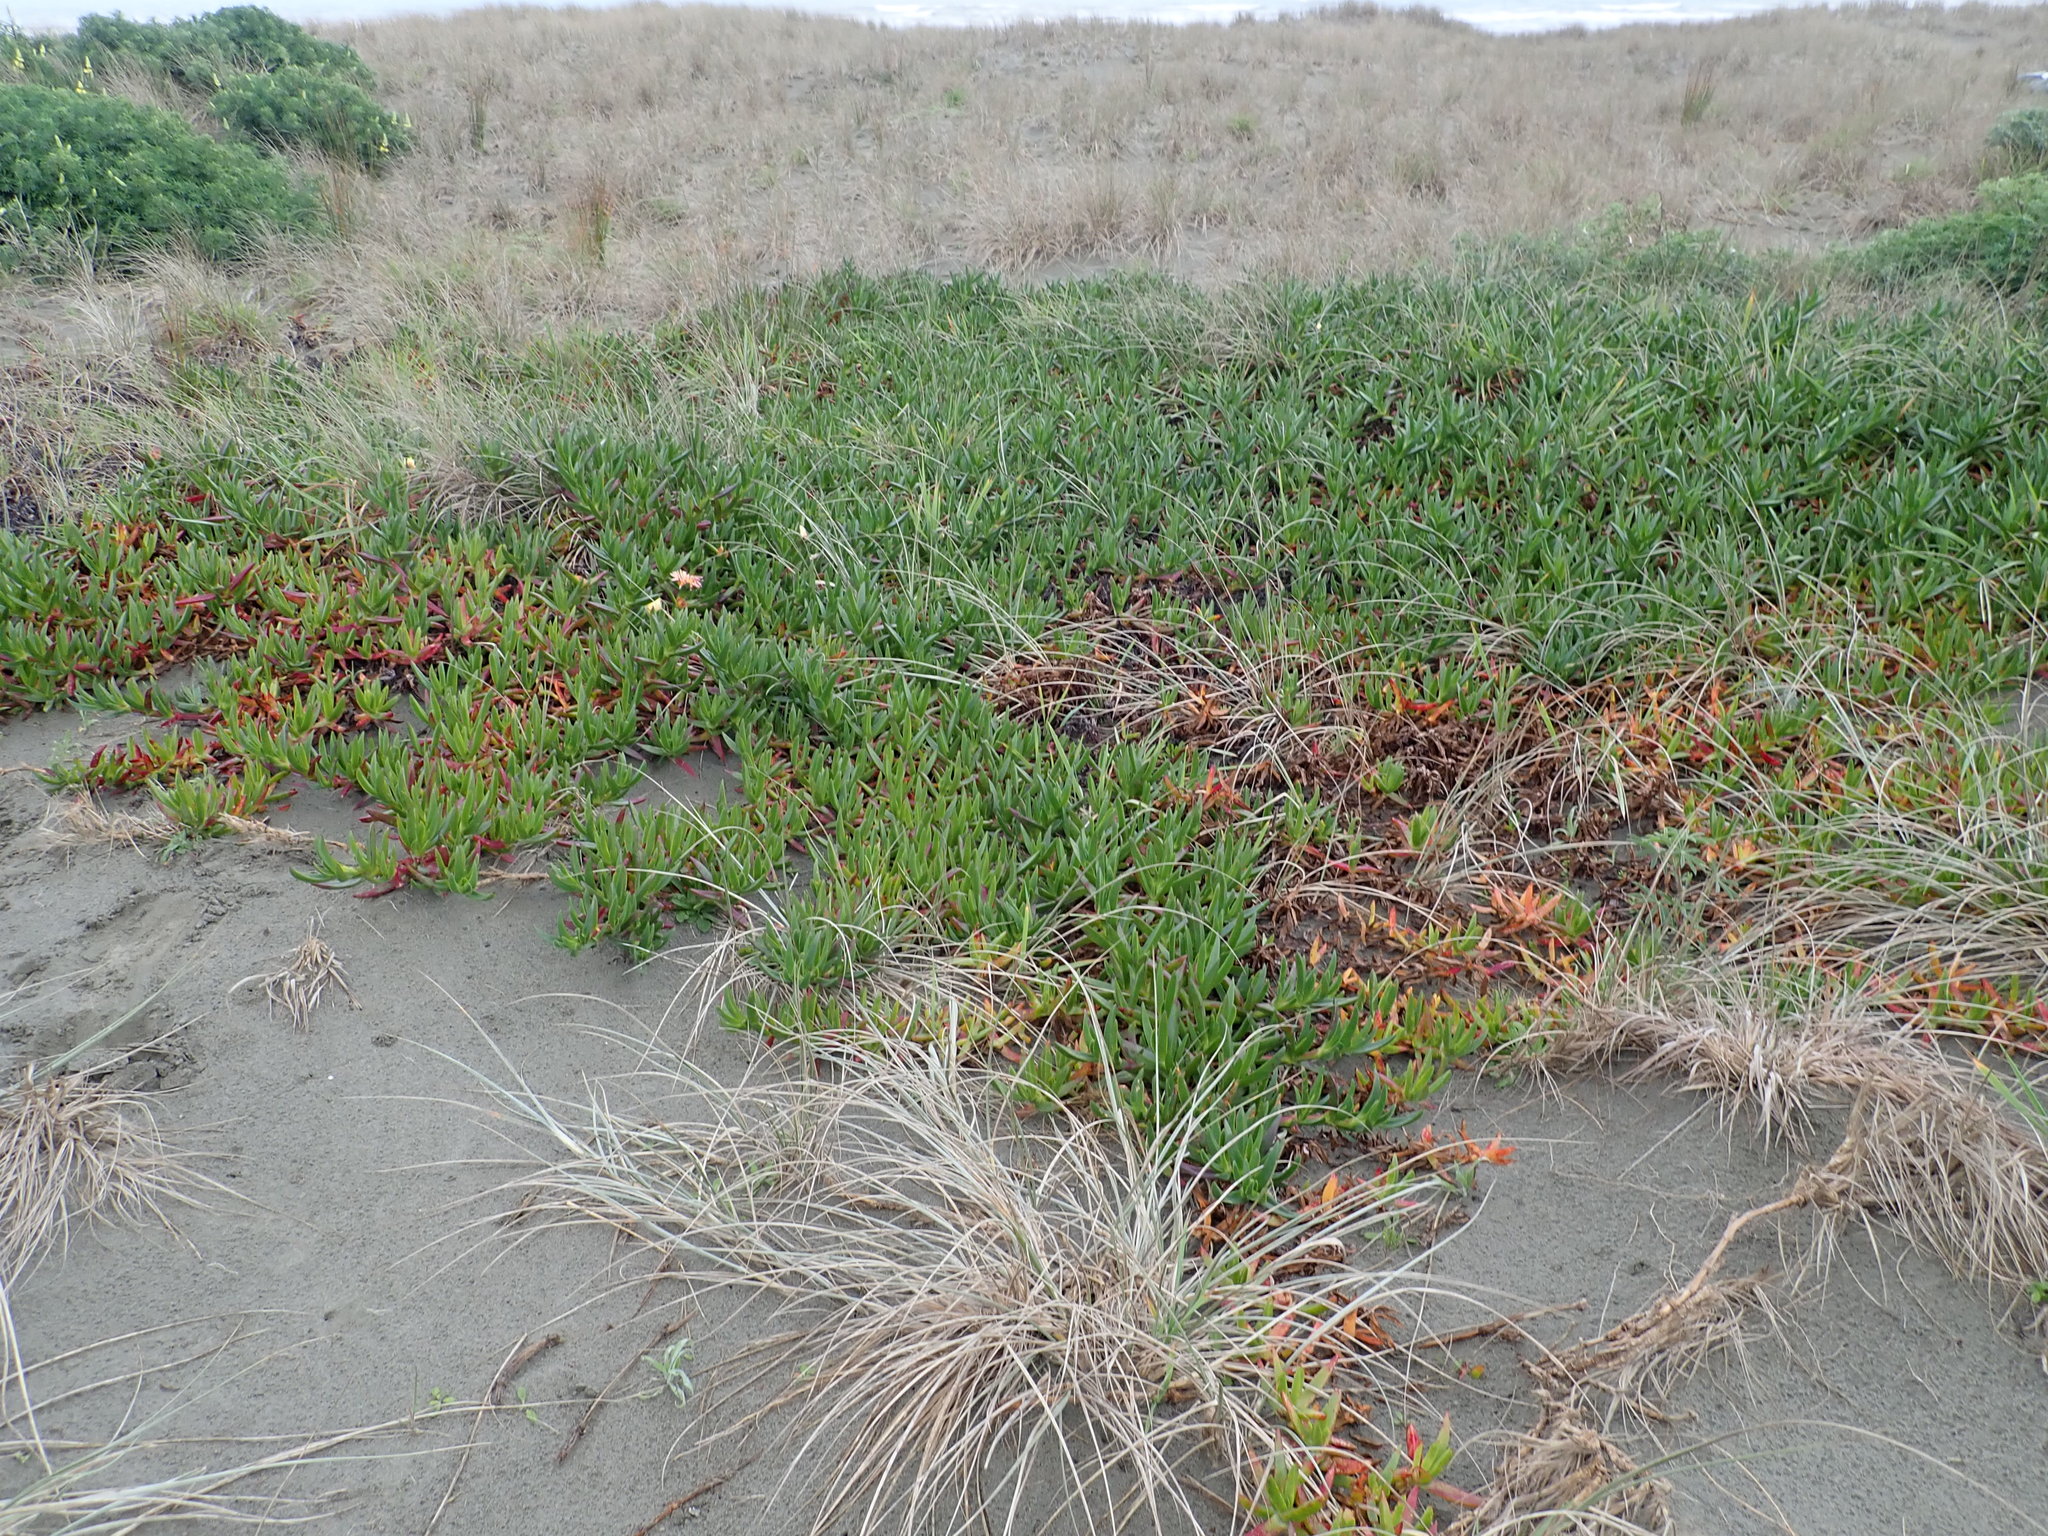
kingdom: Plantae
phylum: Tracheophyta
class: Magnoliopsida
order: Caryophyllales
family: Aizoaceae
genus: Carpobrotus
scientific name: Carpobrotus edulis
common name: Hottentot-fig
